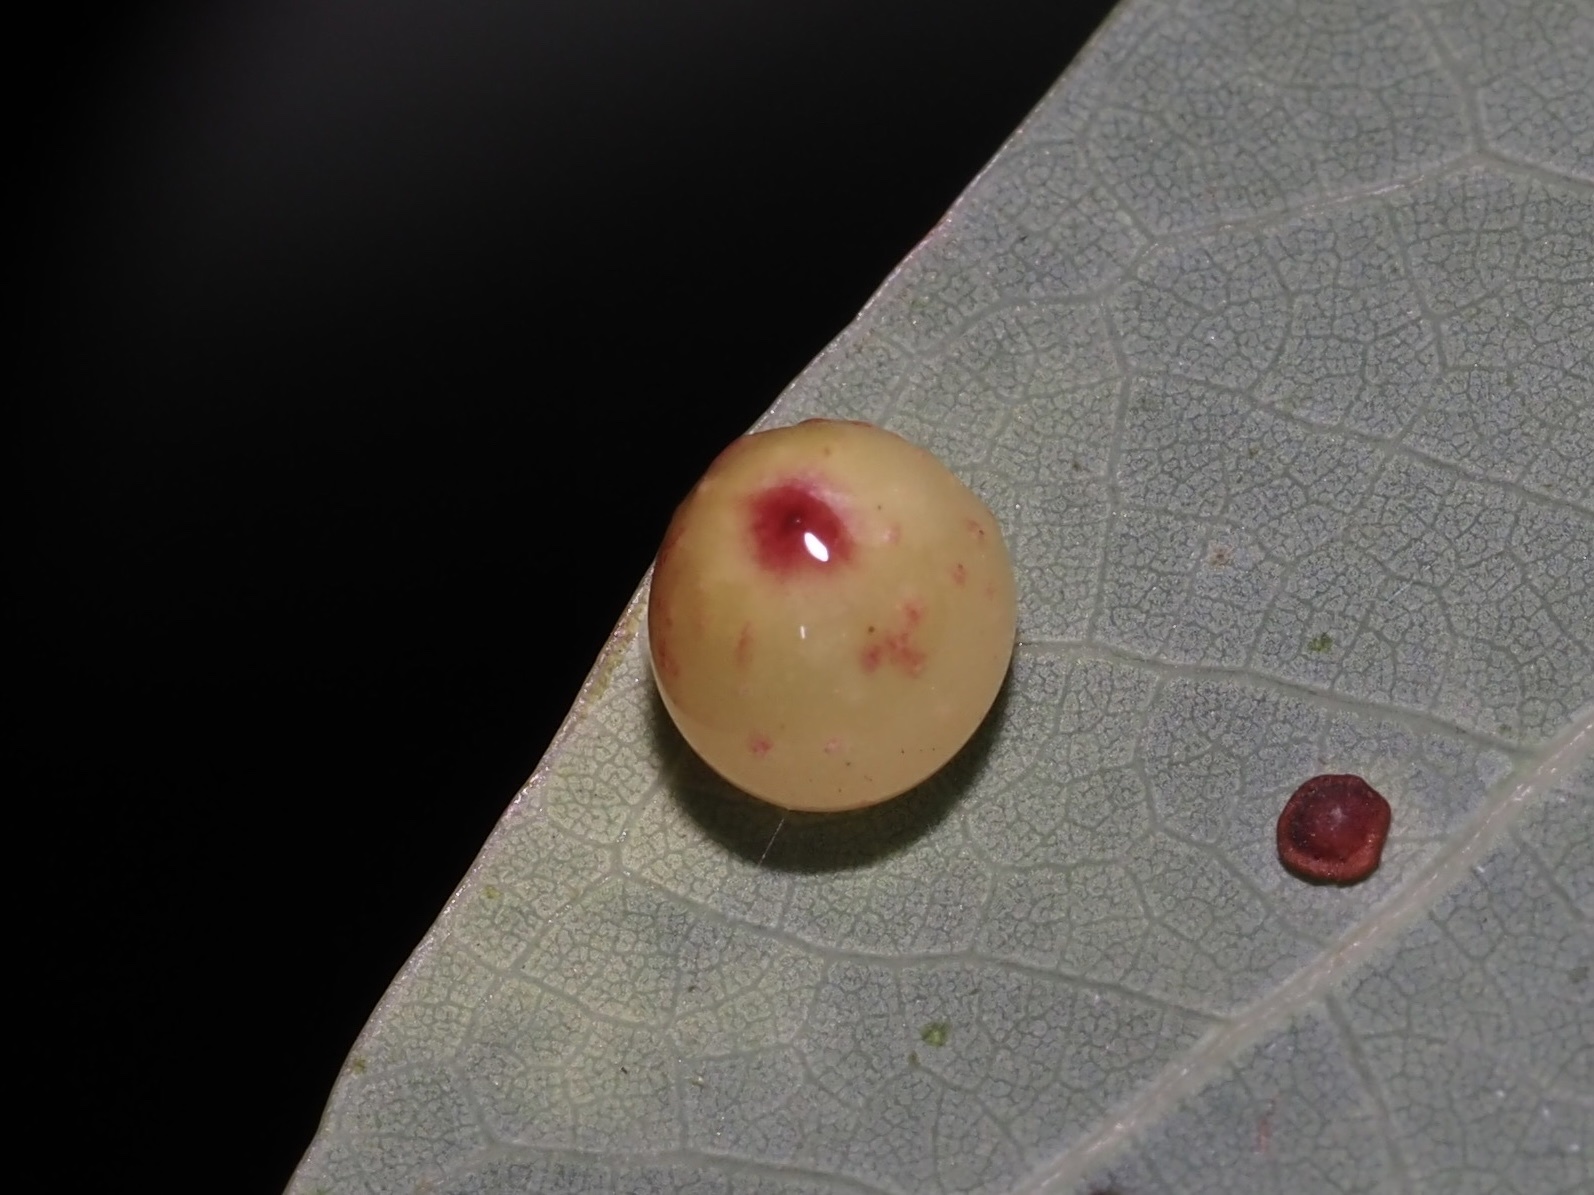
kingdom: Animalia
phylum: Arthropoda
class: Insecta
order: Hymenoptera
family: Cynipidae
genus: Andricus
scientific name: Andricus
